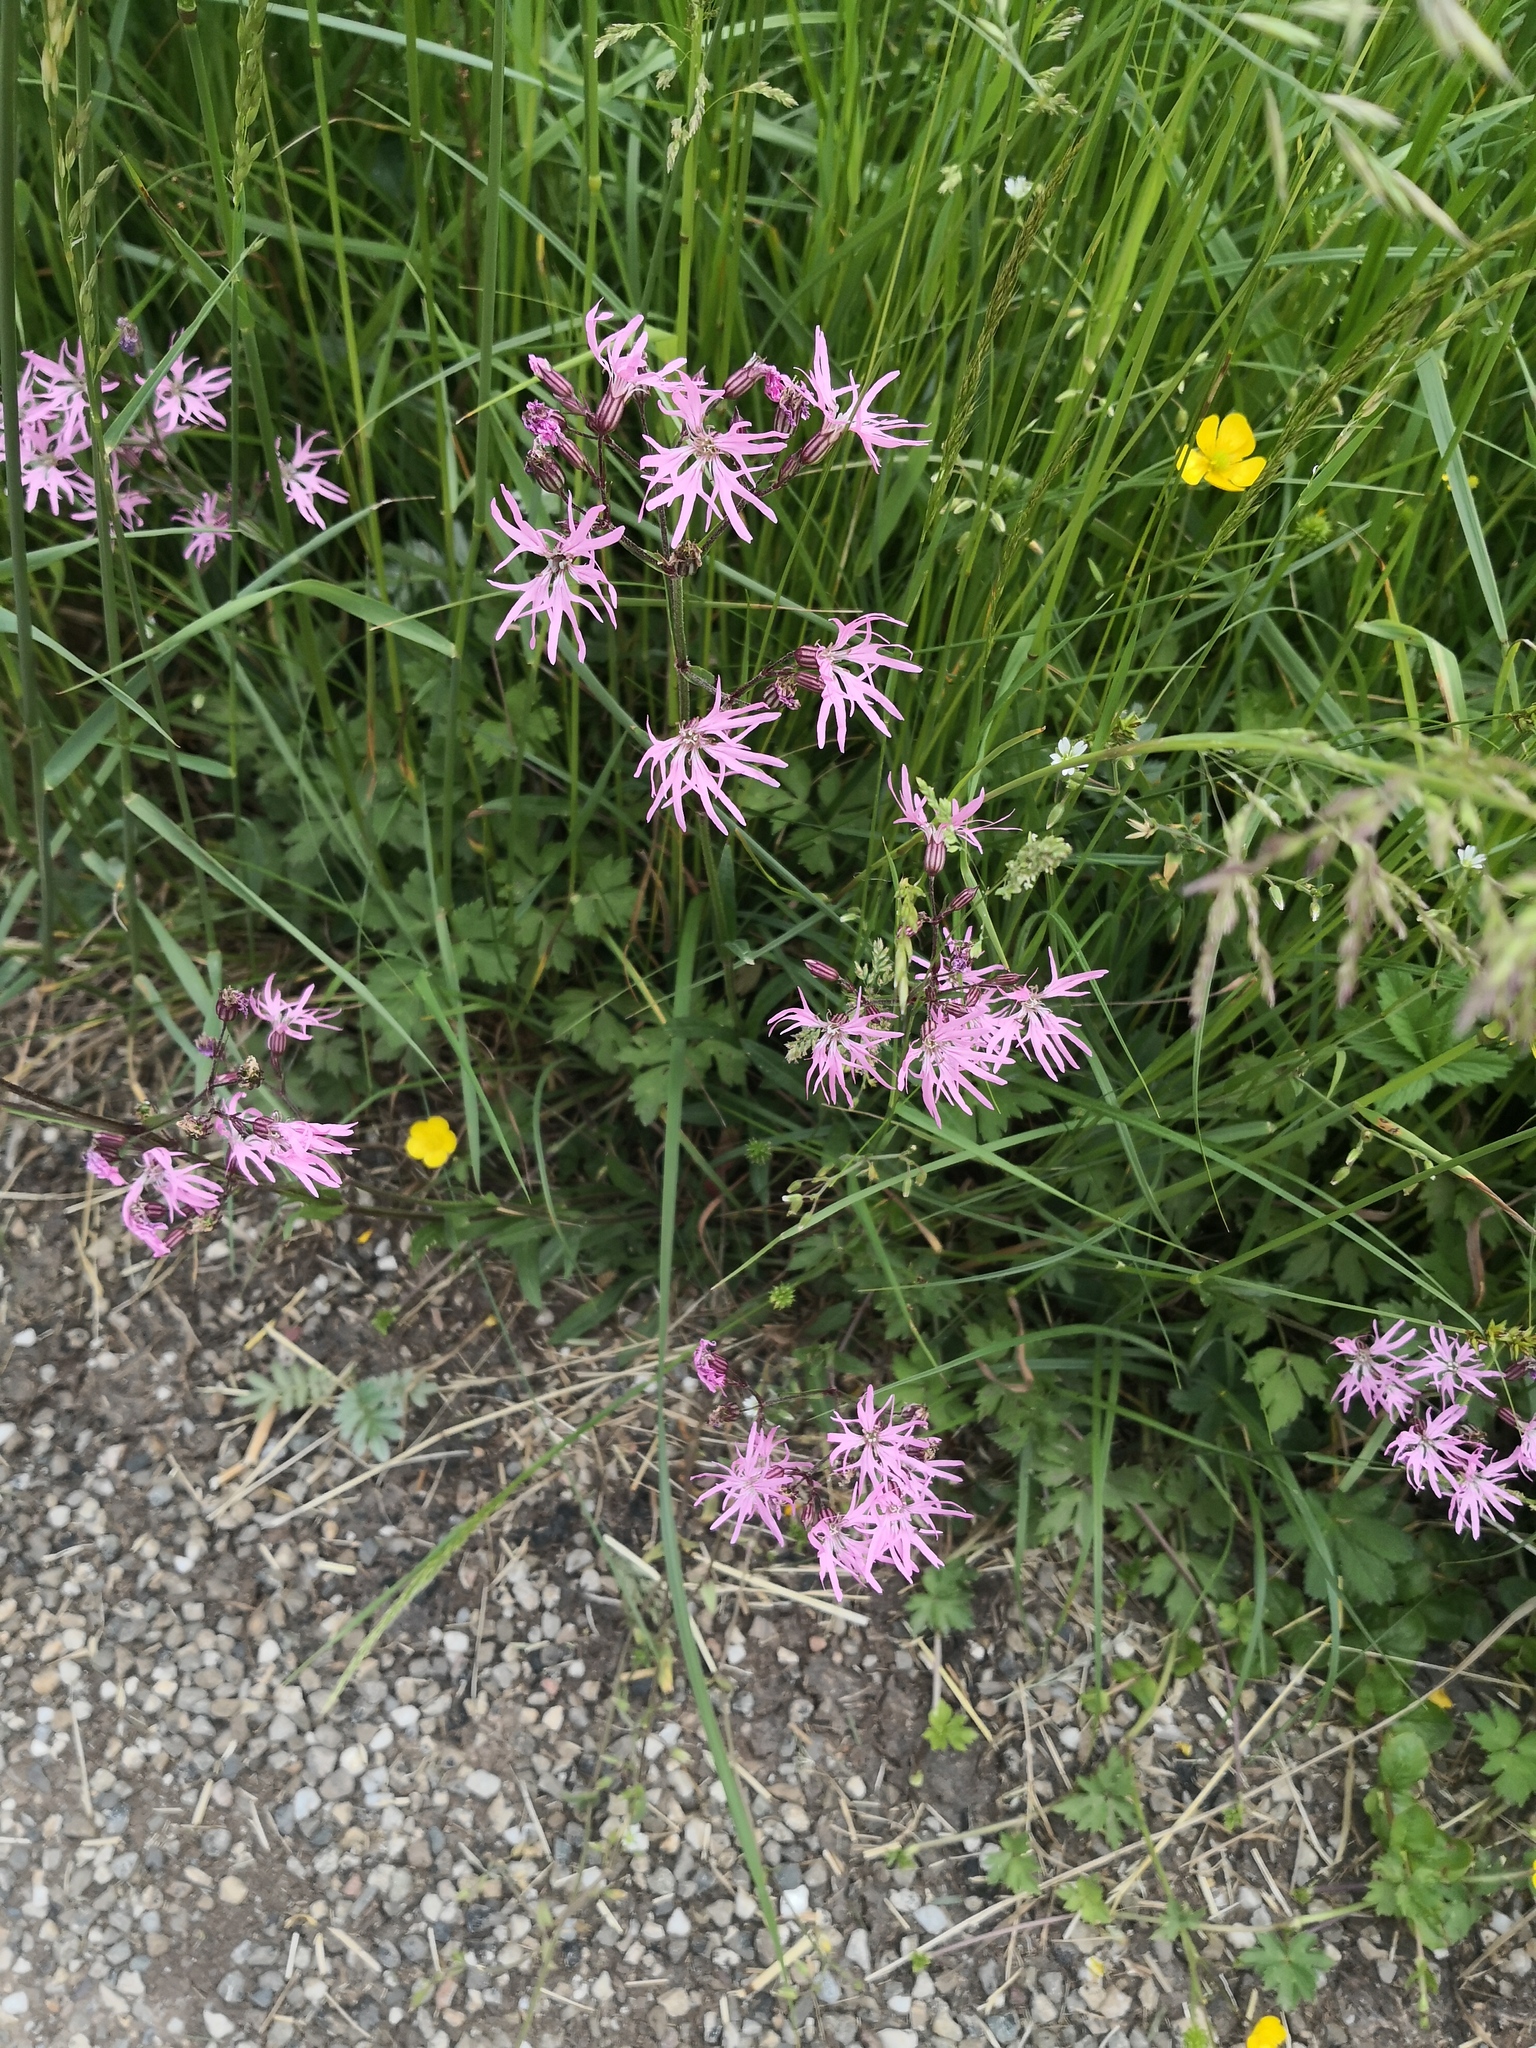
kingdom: Plantae
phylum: Tracheophyta
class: Magnoliopsida
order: Caryophyllales
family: Caryophyllaceae
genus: Silene
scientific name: Silene flos-cuculi
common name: Ragged-robin
